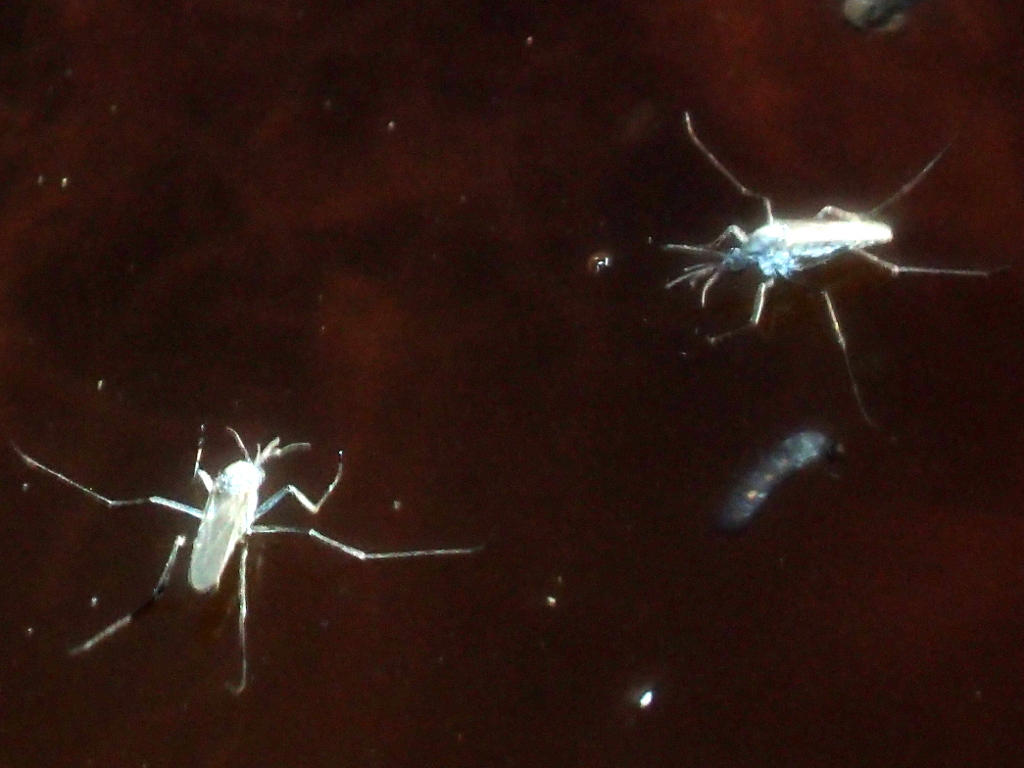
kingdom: Animalia
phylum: Arthropoda
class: Insecta
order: Diptera
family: Culicidae
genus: Opifex
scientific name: Opifex fuscus
